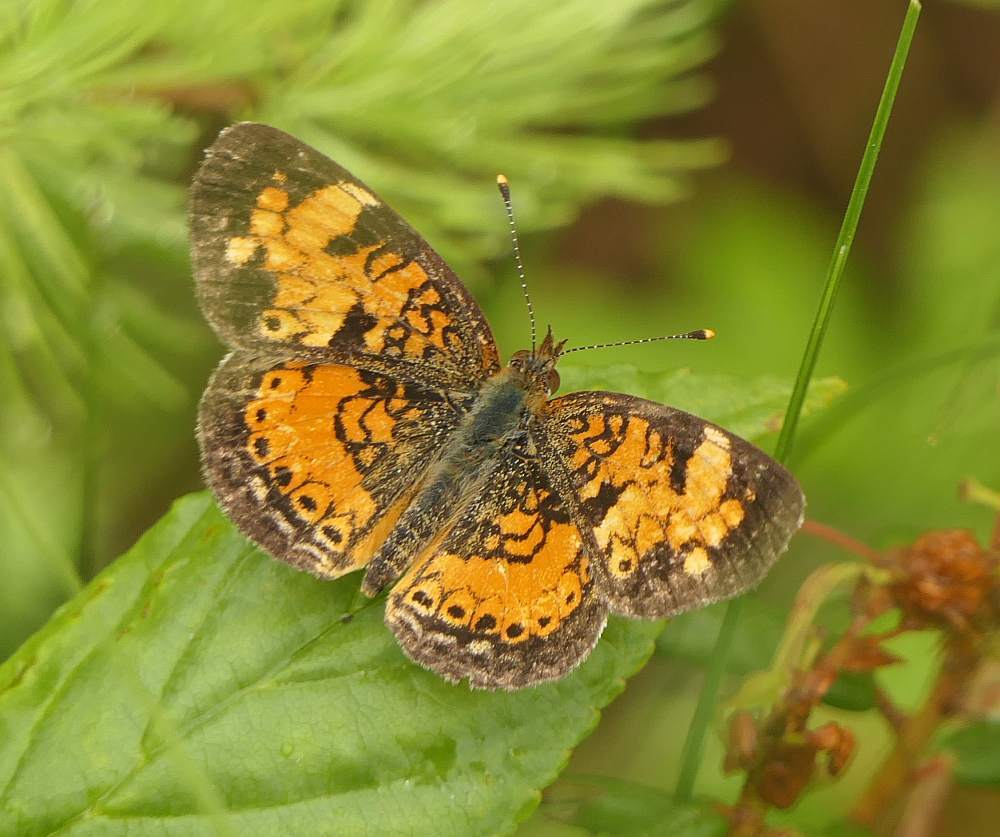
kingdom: Animalia
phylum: Arthropoda
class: Insecta
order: Lepidoptera
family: Nymphalidae
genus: Phyciodes
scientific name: Phyciodes tharos
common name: Pearl crescent
